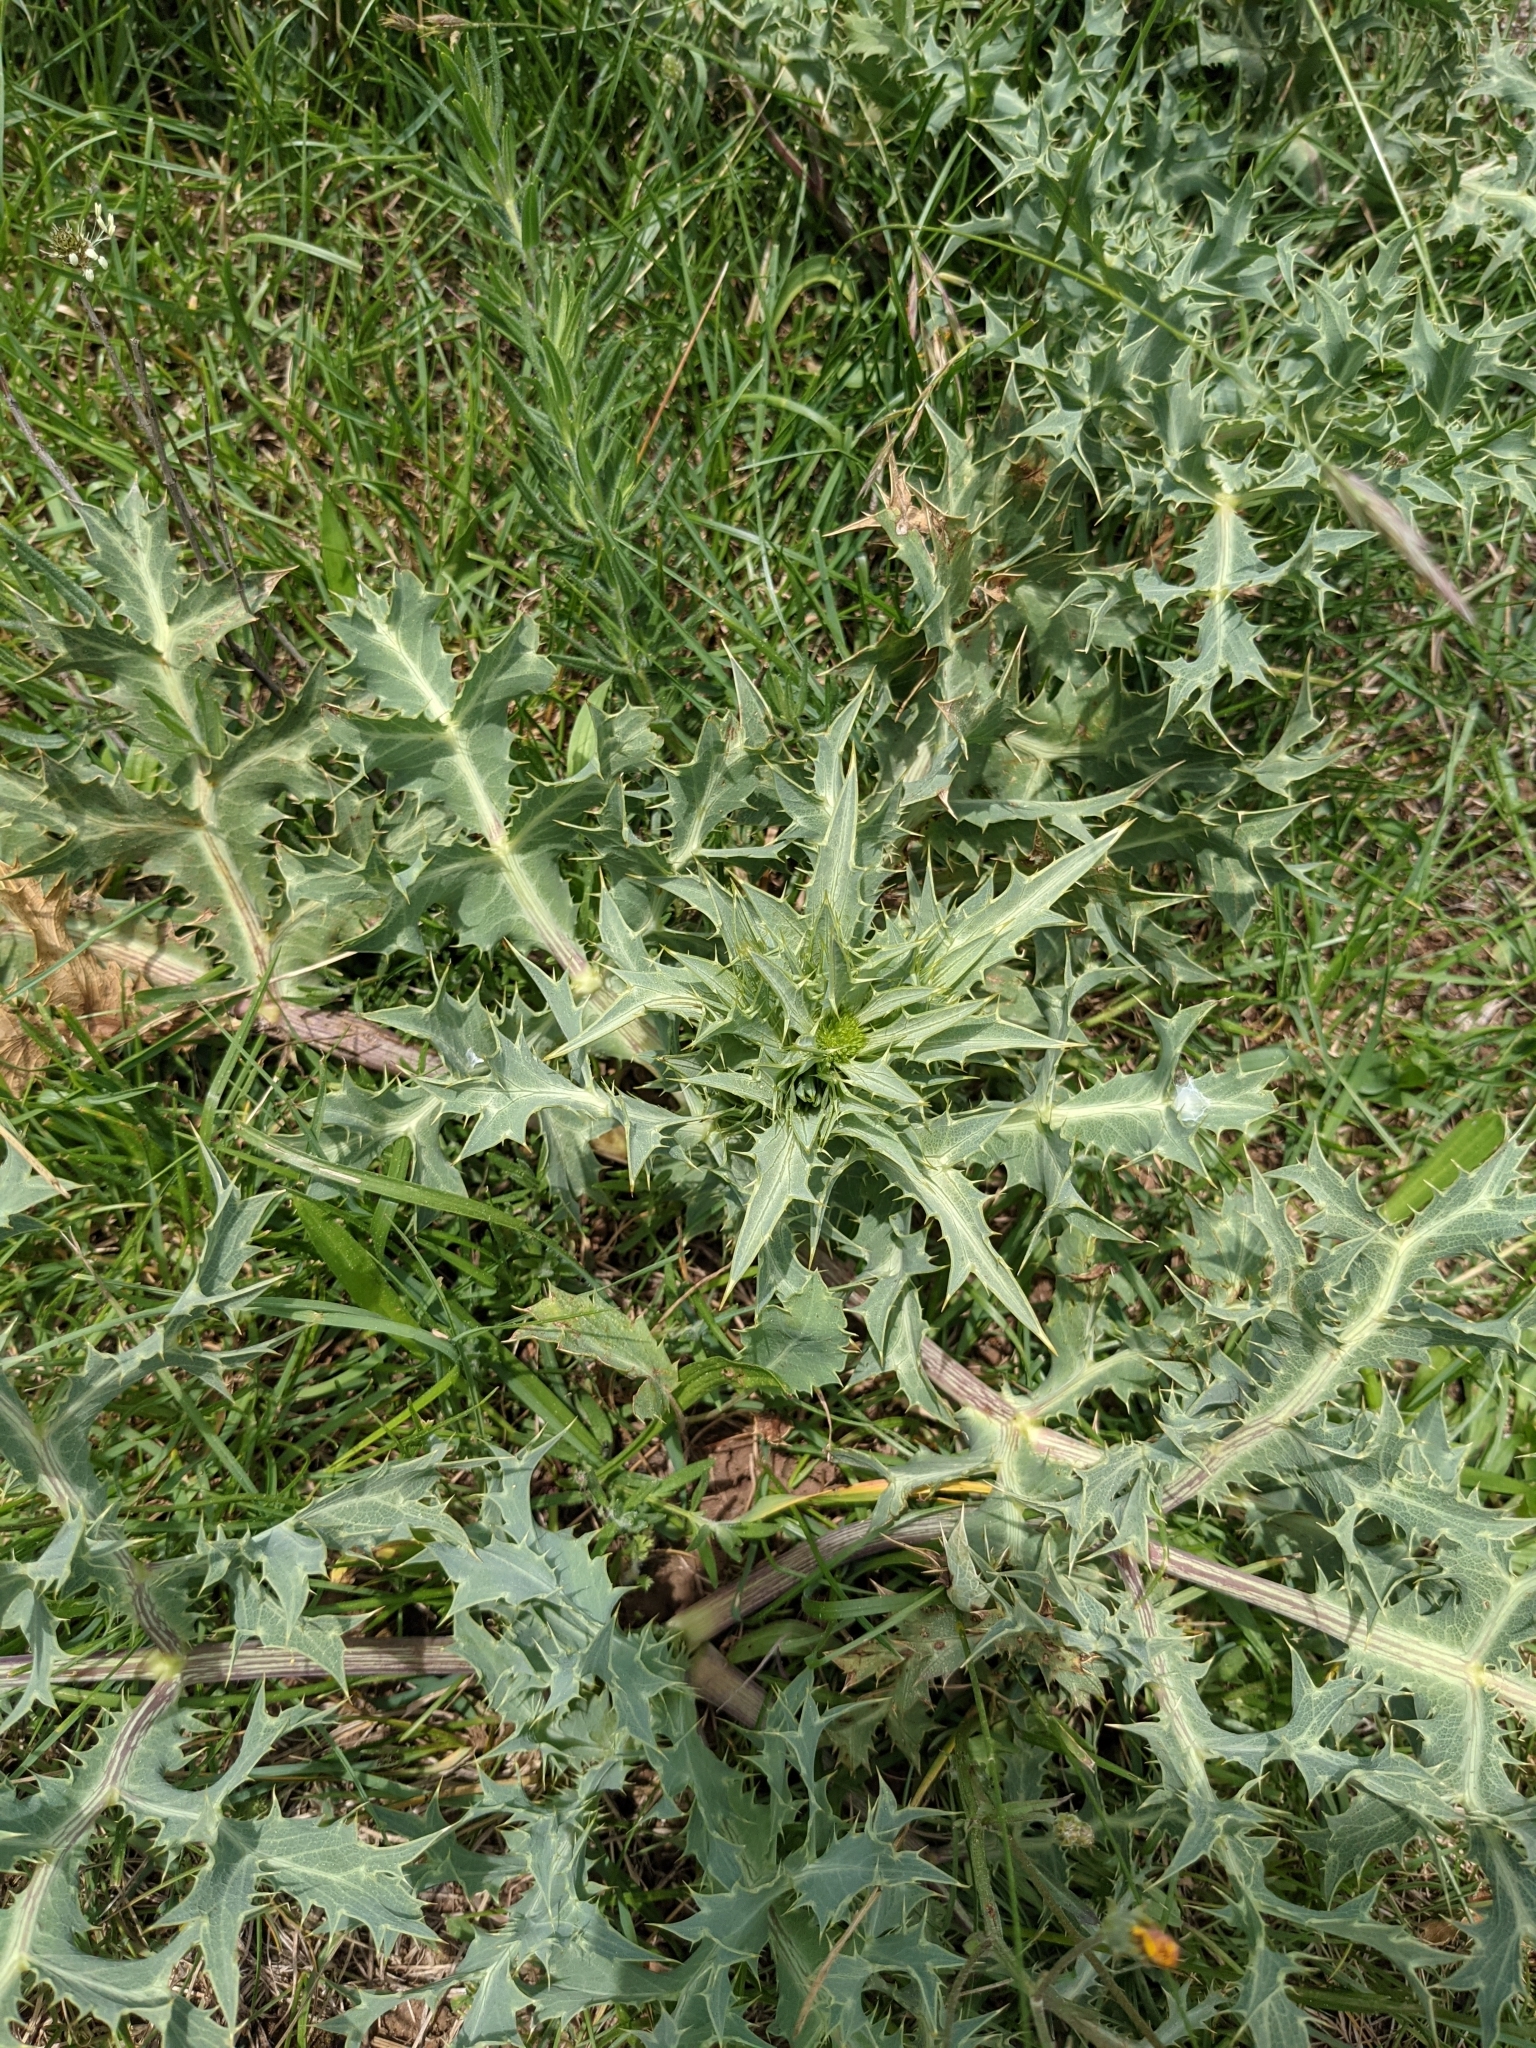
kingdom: Plantae
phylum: Tracheophyta
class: Magnoliopsida
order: Apiales
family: Apiaceae
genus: Eryngium
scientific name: Eryngium campestre
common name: Field eryngo
